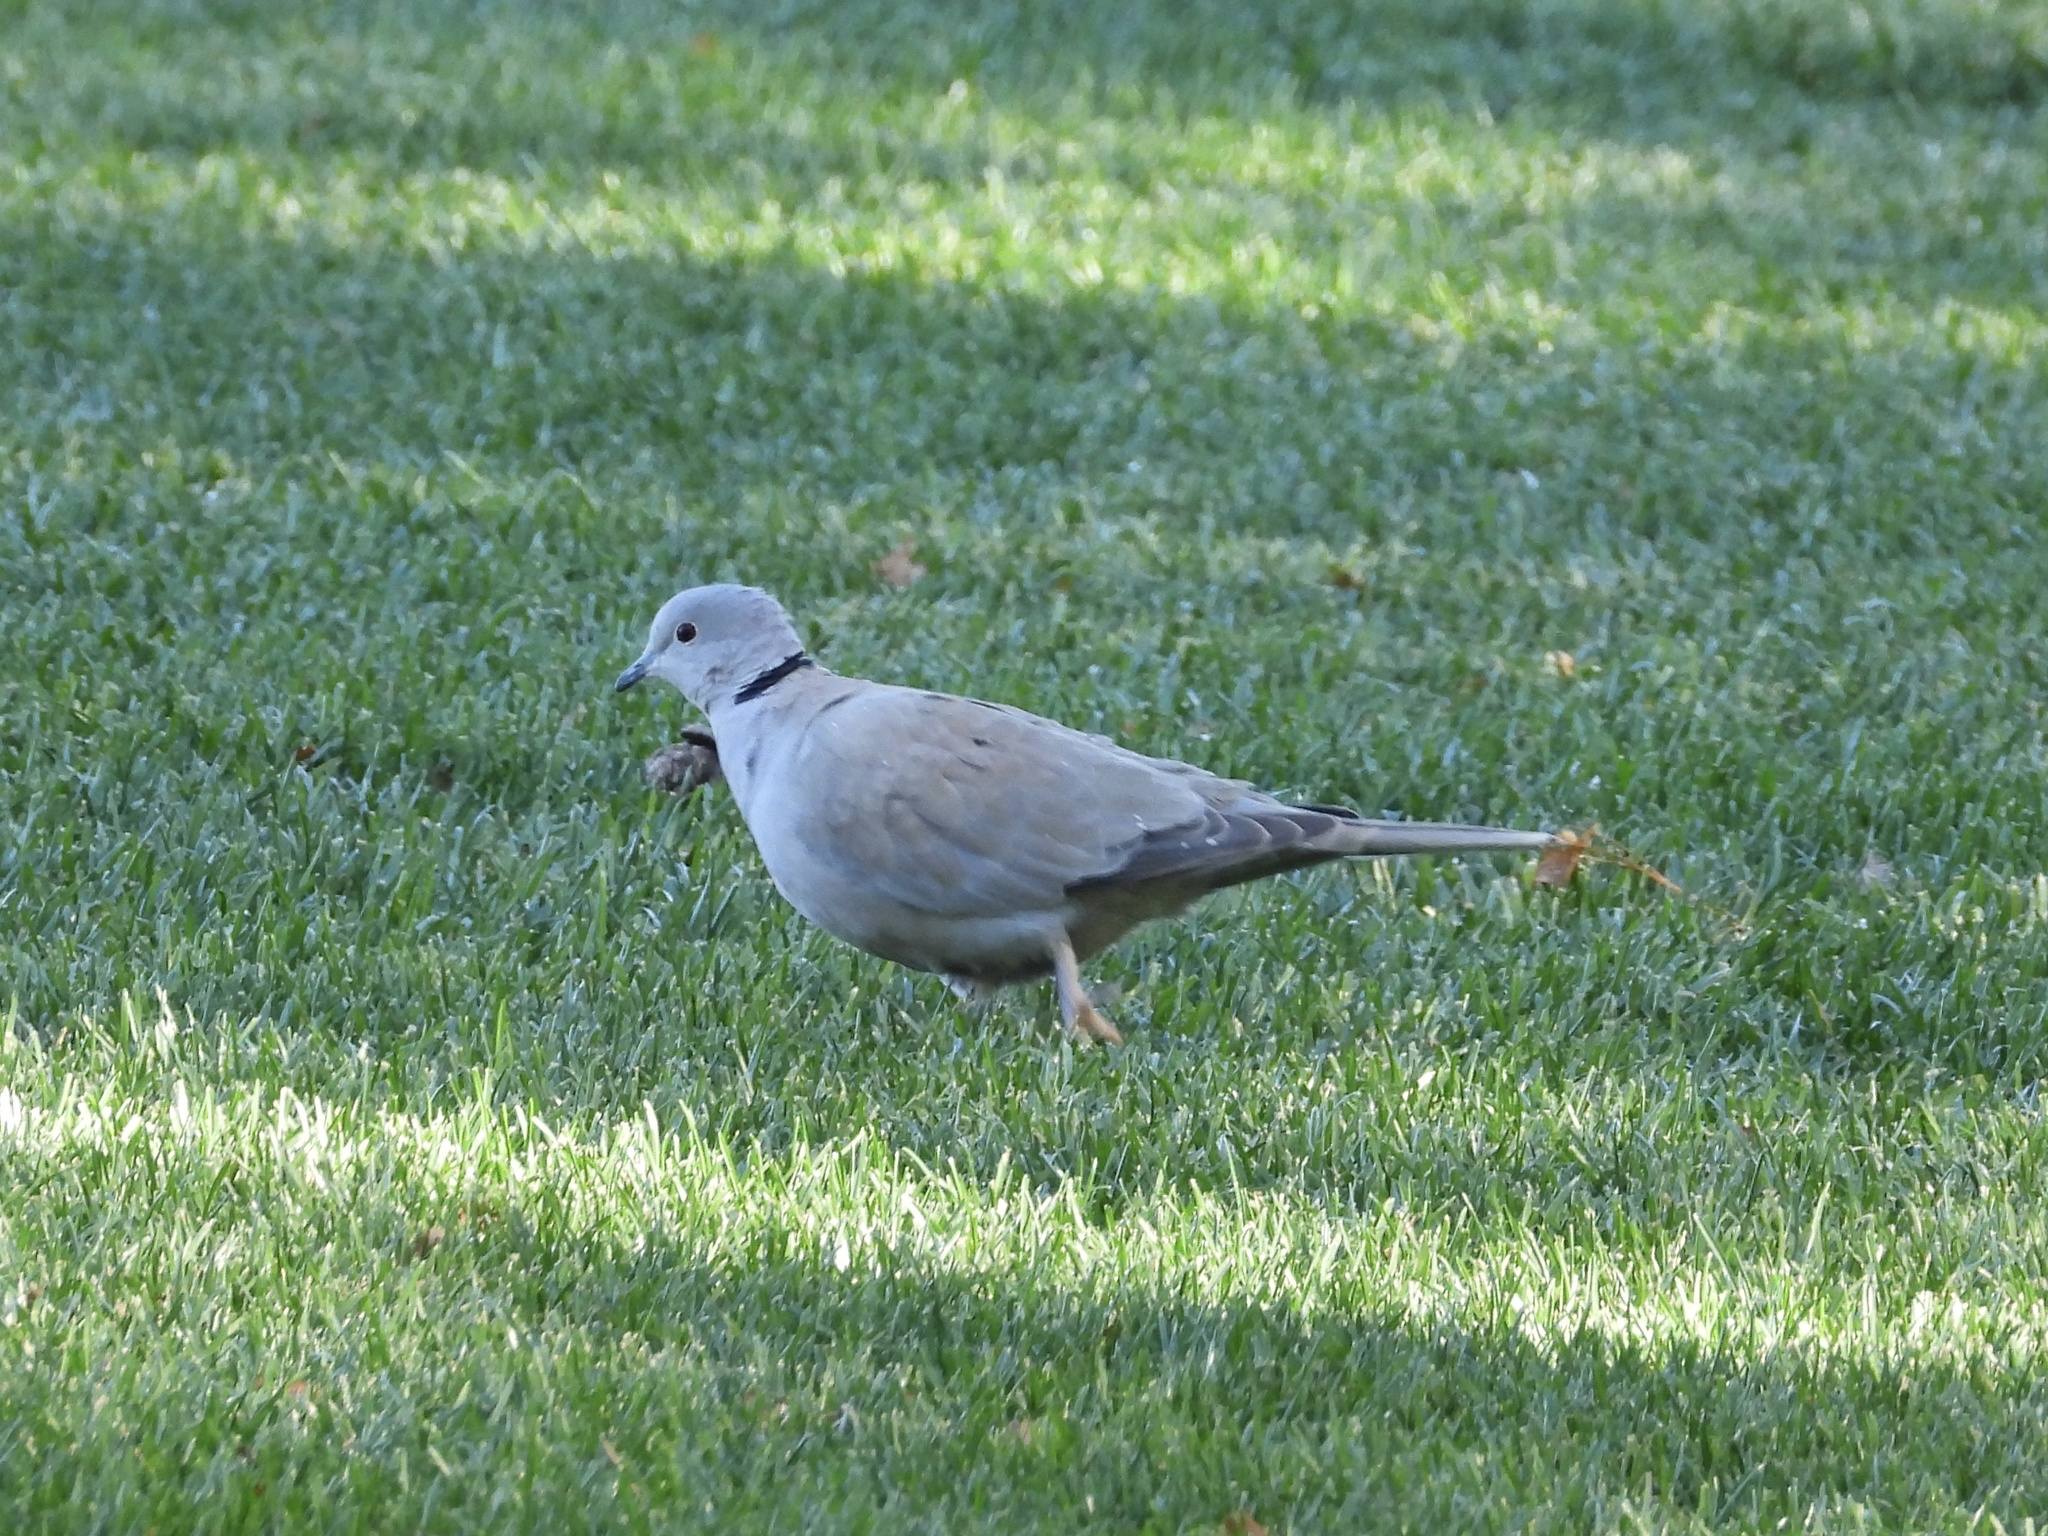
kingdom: Animalia
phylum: Chordata
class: Aves
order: Columbiformes
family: Columbidae
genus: Streptopelia
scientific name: Streptopelia decaocto
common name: Eurasian collared dove
